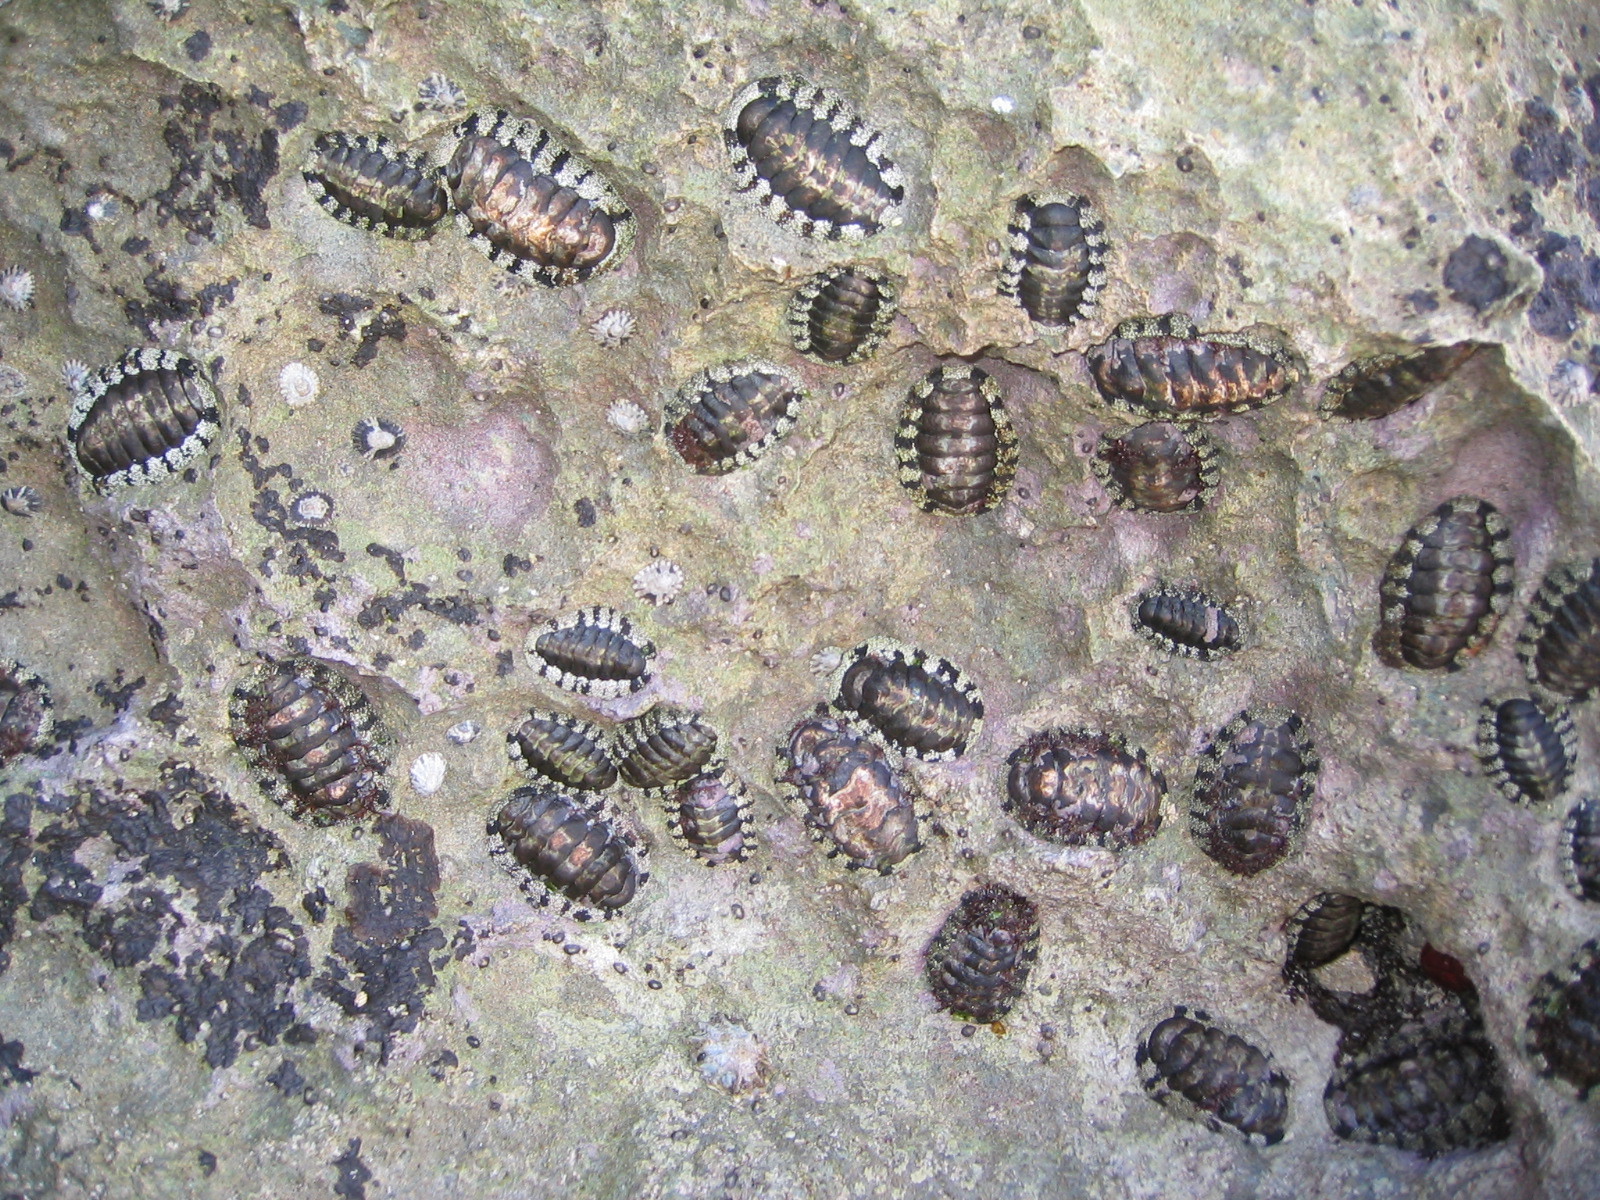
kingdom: Animalia
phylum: Mollusca
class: Polyplacophora
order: Chitonida
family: Chitonidae
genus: Liolophura
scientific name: Liolophura hirtosa
